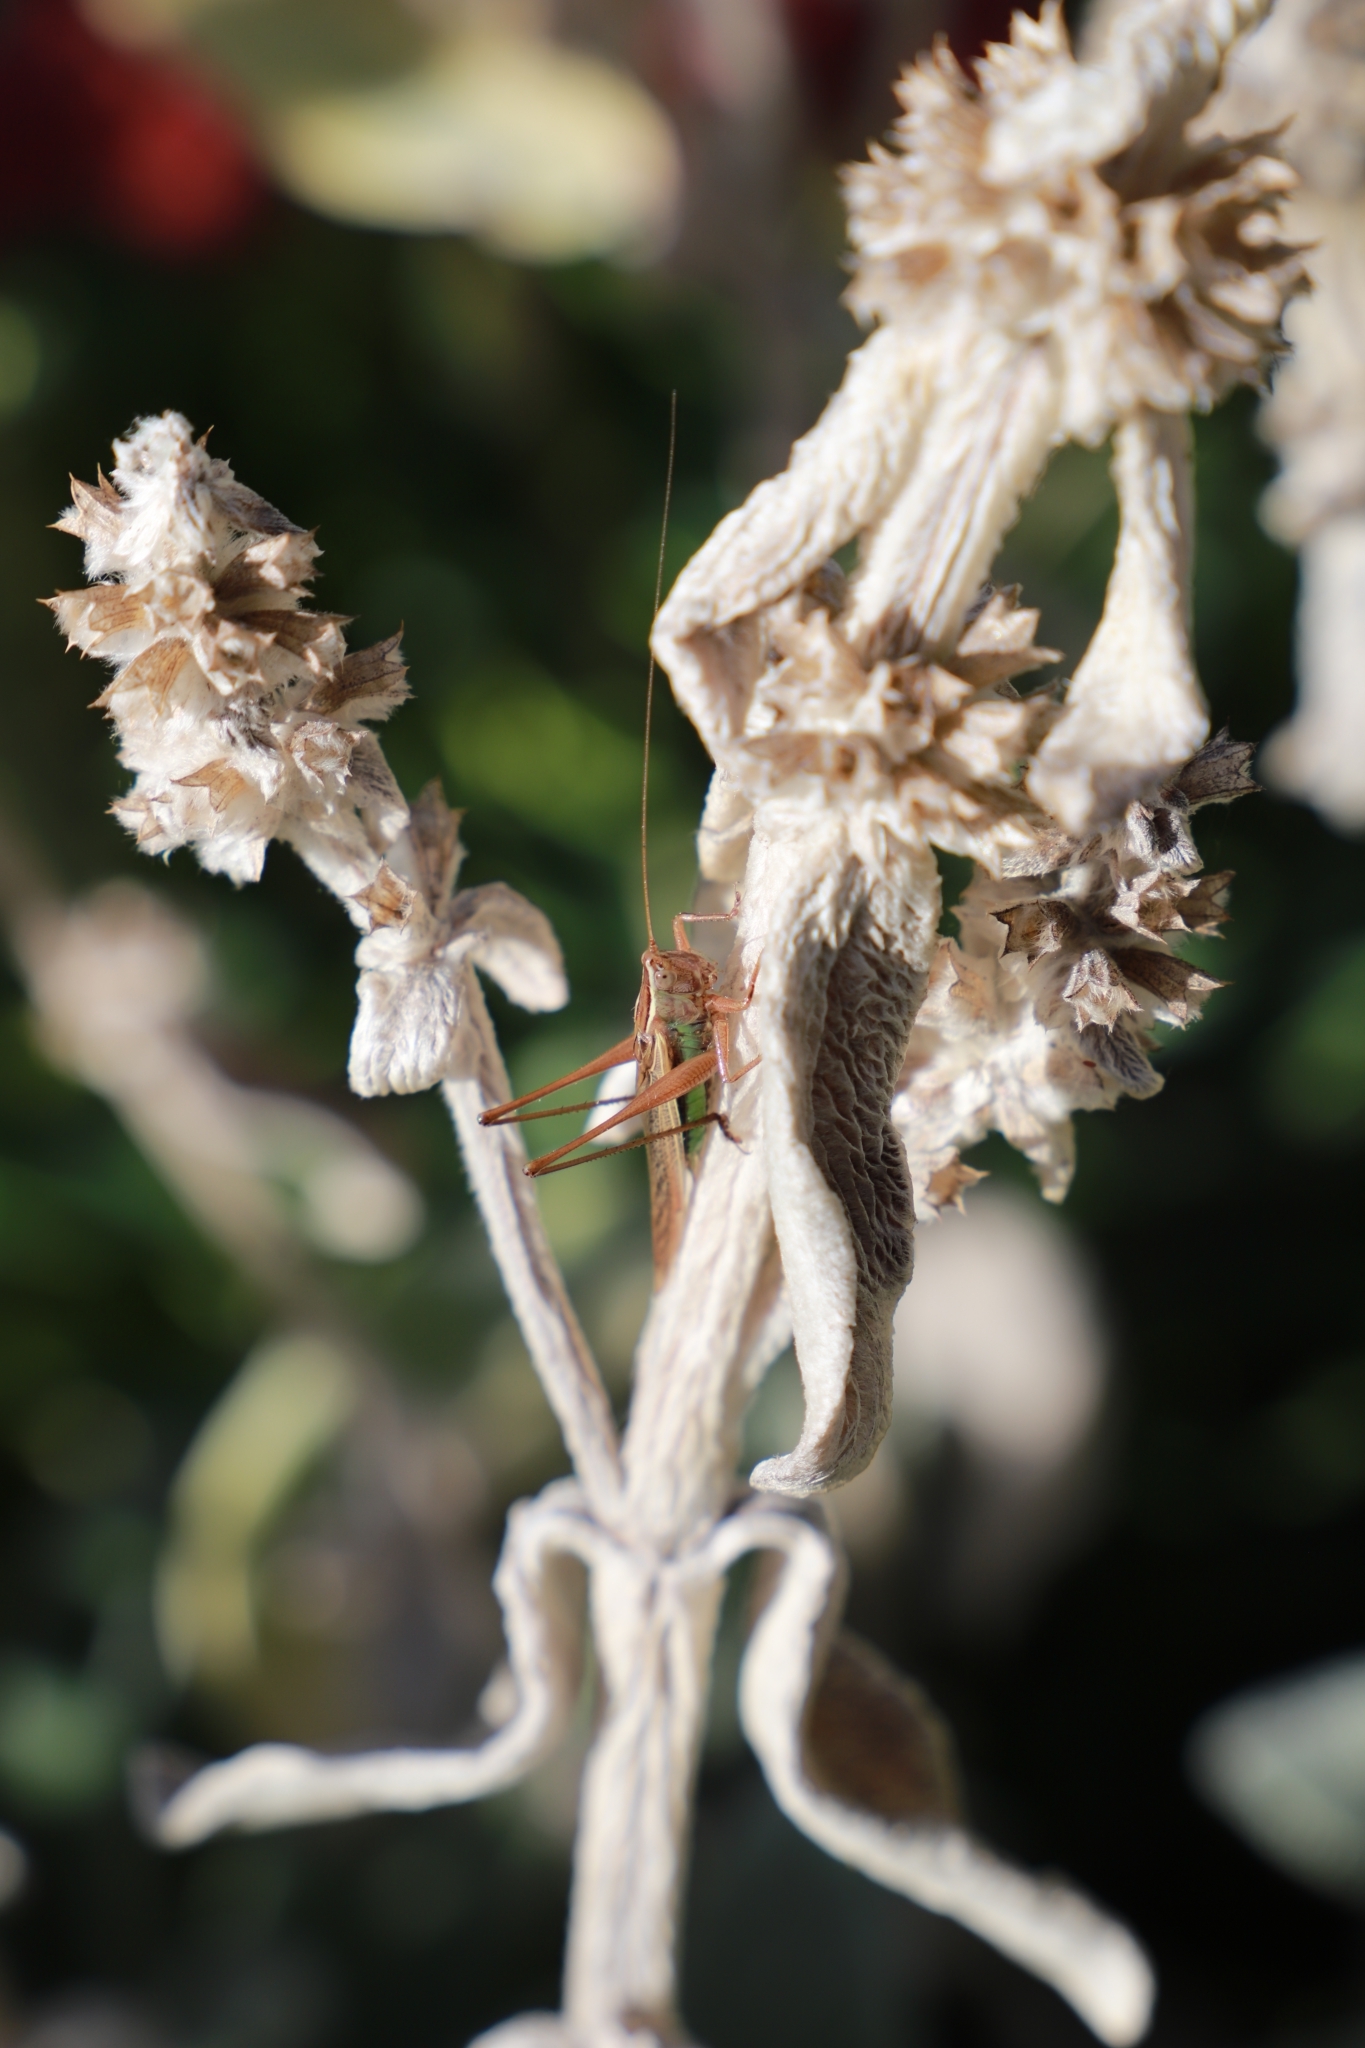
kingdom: Animalia
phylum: Arthropoda
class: Insecta
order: Orthoptera
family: Tettigoniidae
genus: Conocephalus
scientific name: Conocephalus albescens
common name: Whitish meadow katydid
